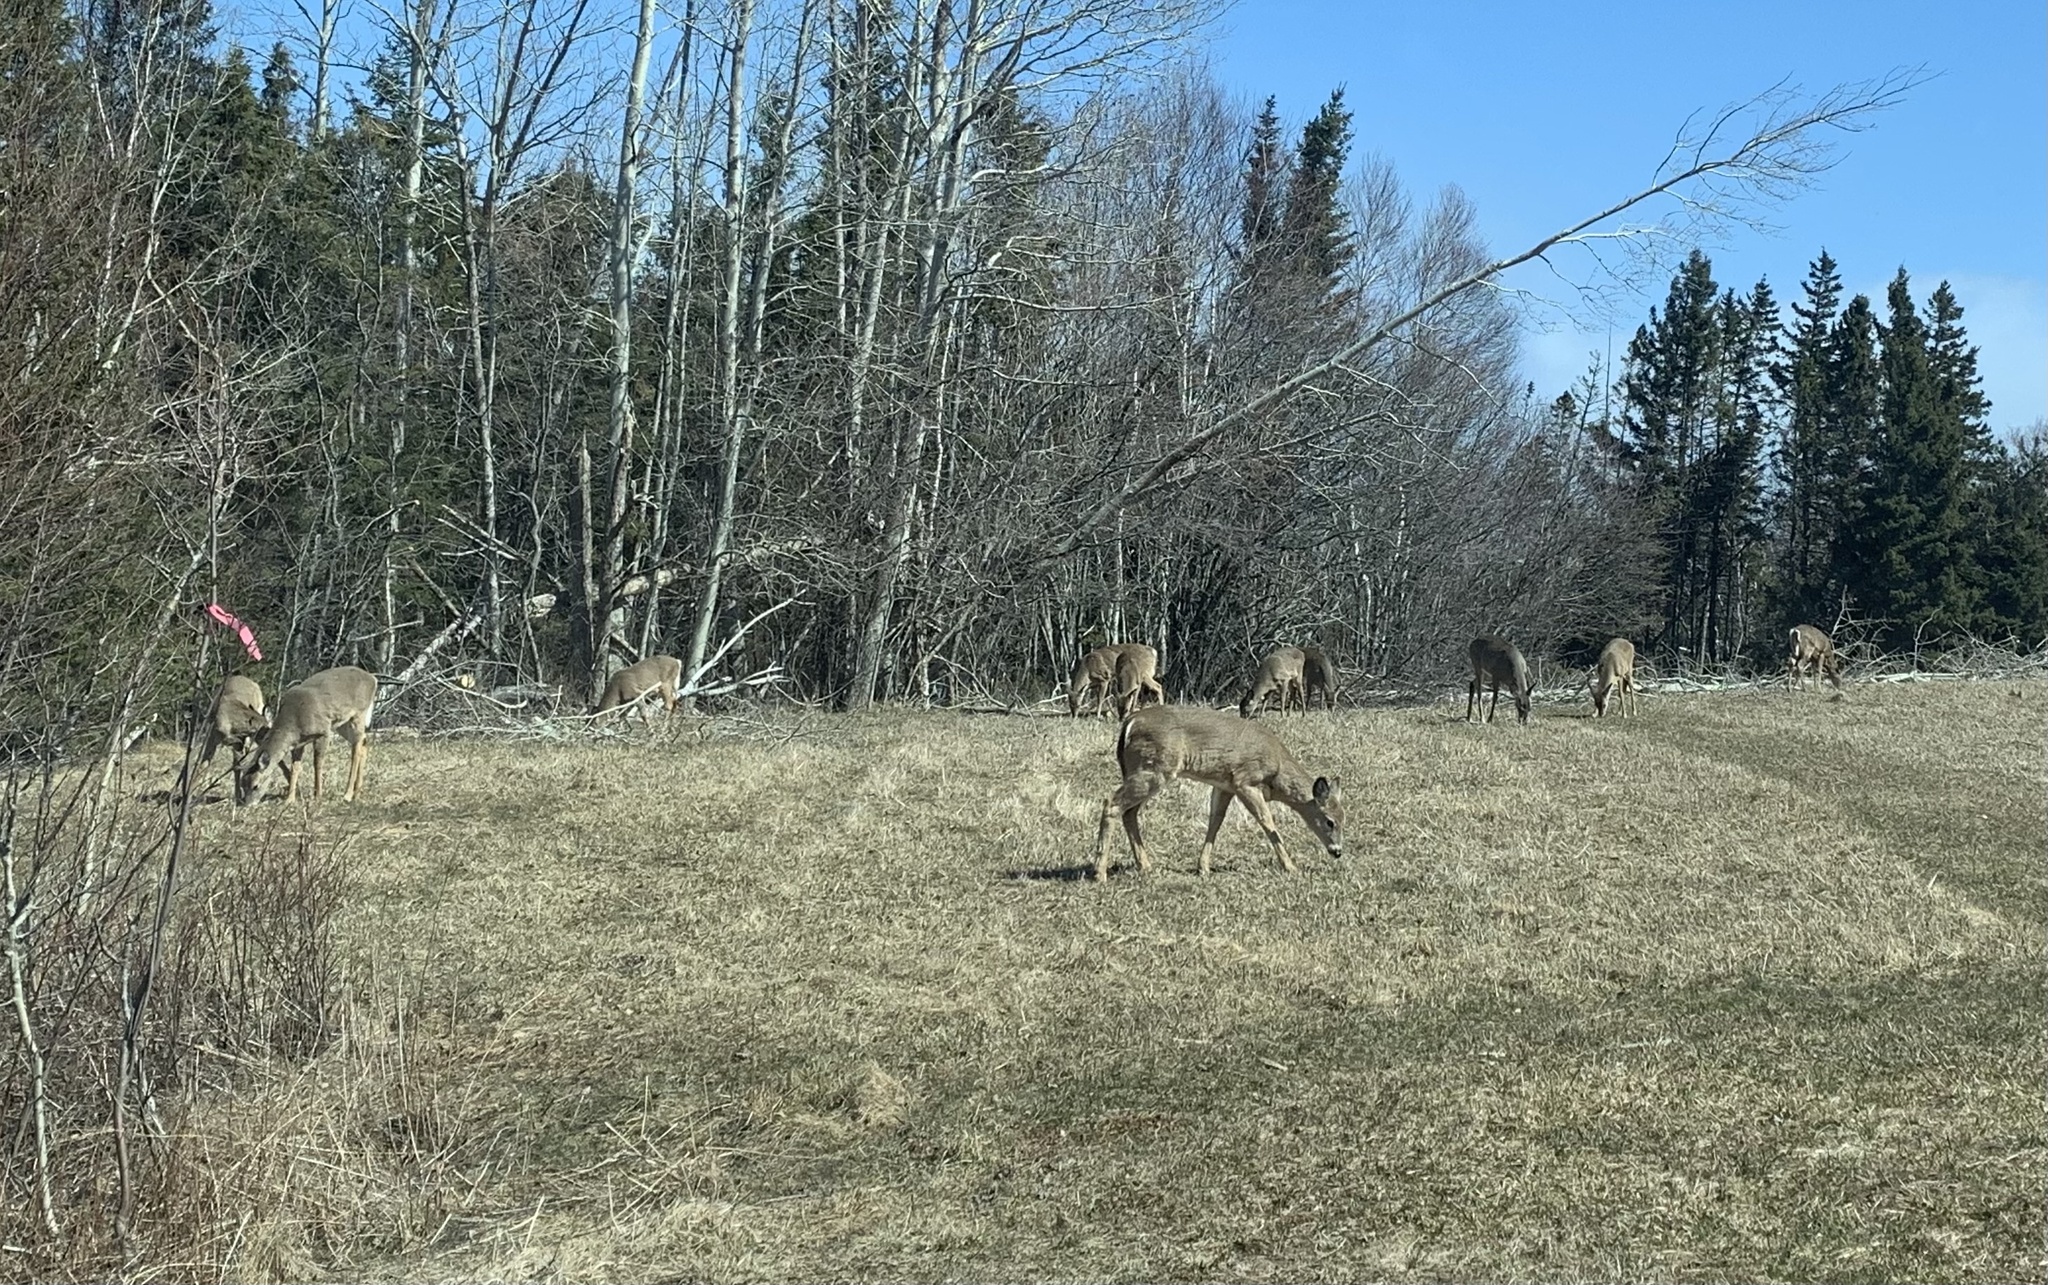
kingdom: Animalia
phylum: Chordata
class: Mammalia
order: Artiodactyla
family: Cervidae
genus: Odocoileus
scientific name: Odocoileus virginianus
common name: White-tailed deer
